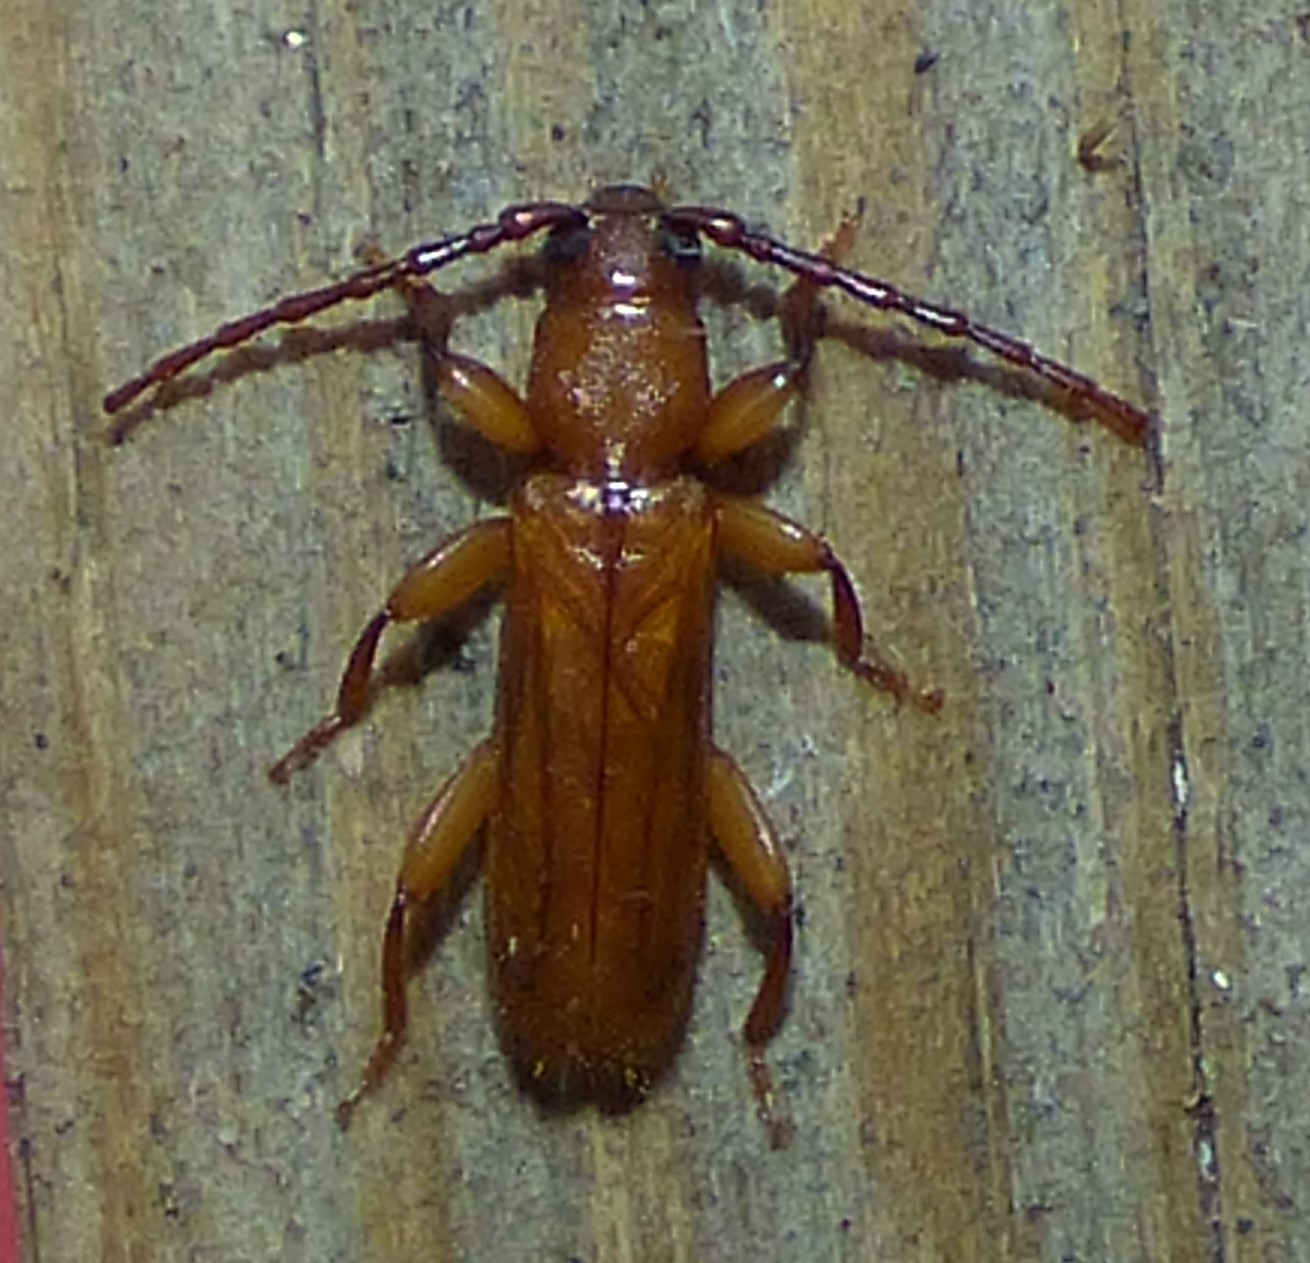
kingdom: Animalia
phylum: Arthropoda
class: Insecta
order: Coleoptera
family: Cerambycidae
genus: Smodicum
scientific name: Smodicum cucujiforme
